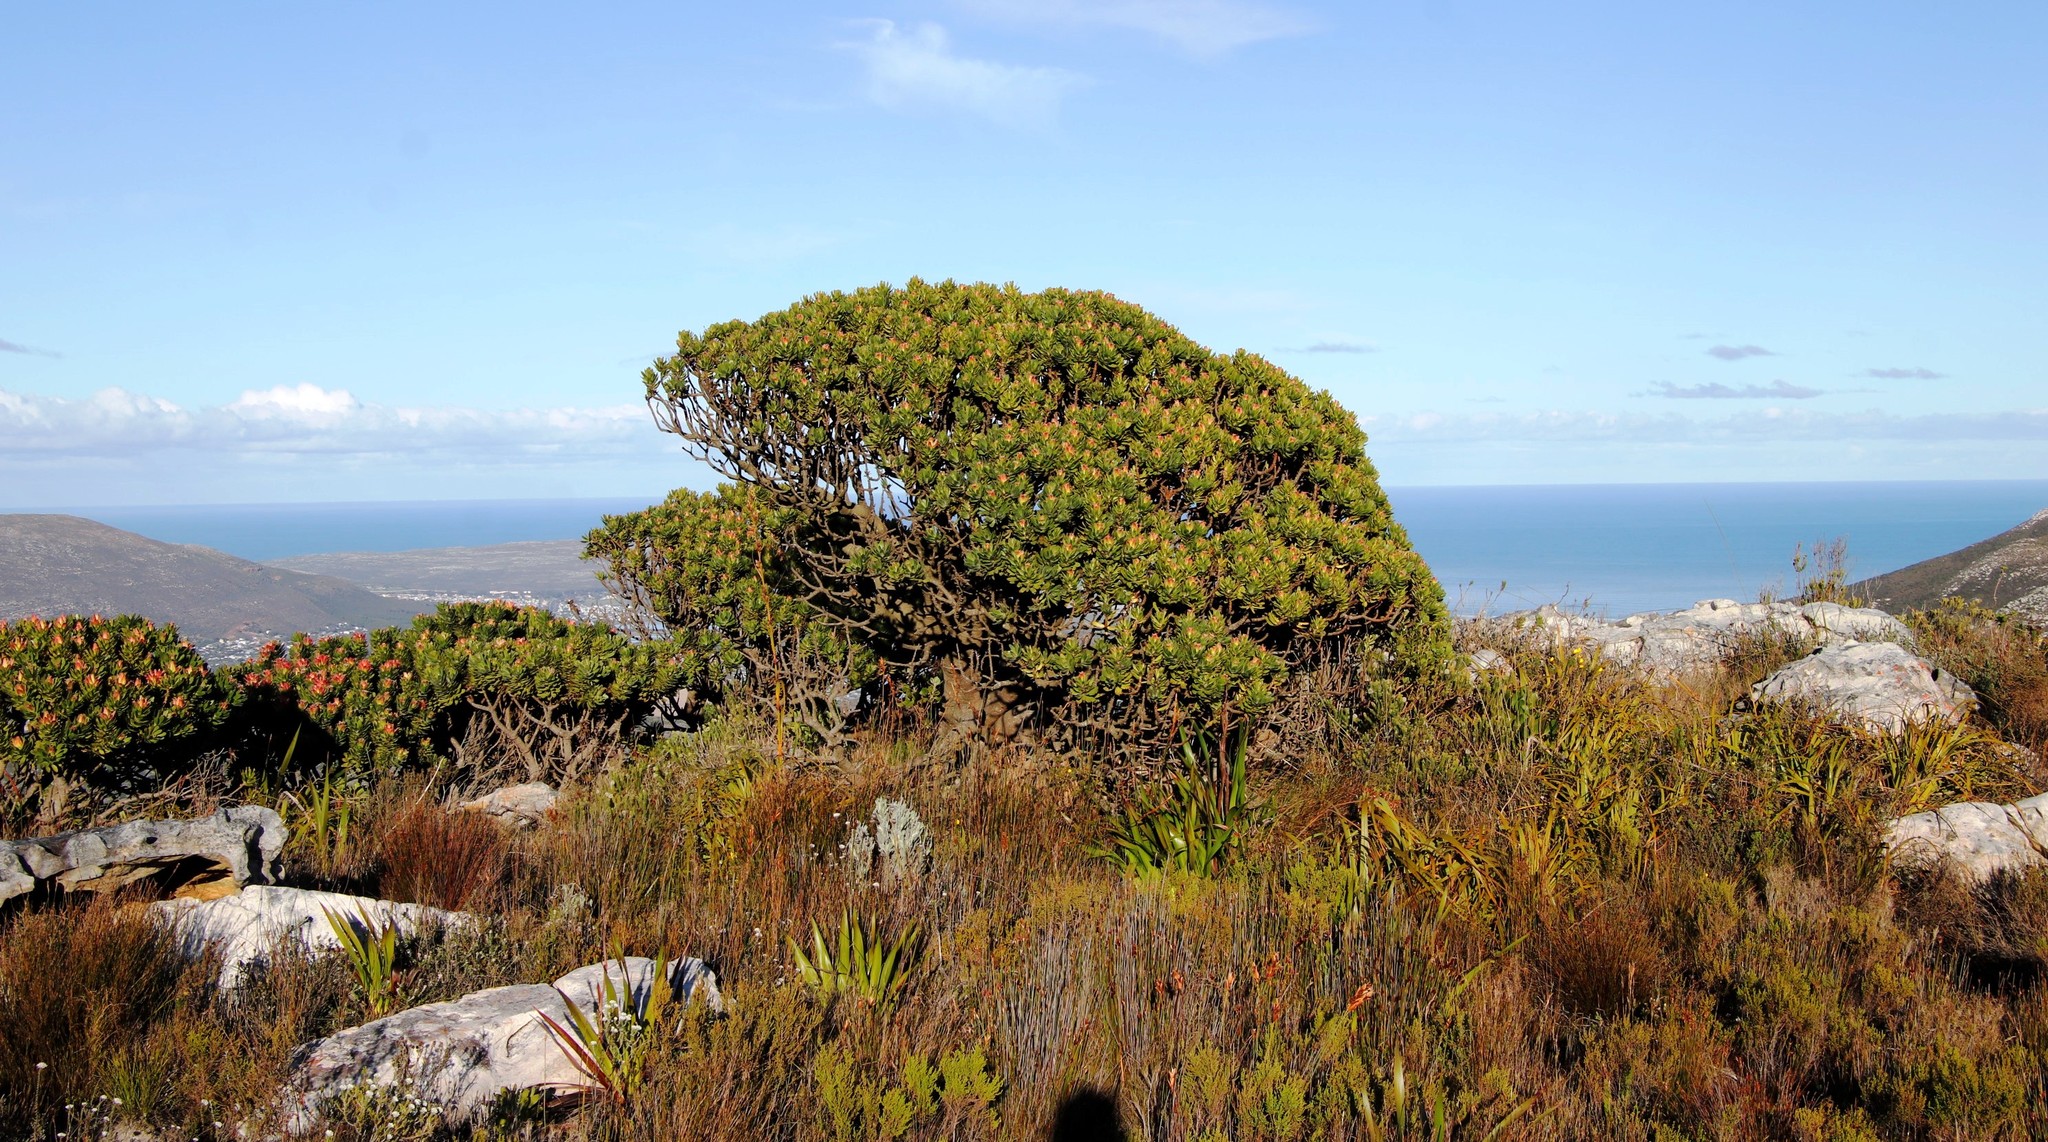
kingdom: Plantae
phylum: Tracheophyta
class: Magnoliopsida
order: Proteales
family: Proteaceae
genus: Mimetes
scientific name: Mimetes fimbriifolius
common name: Fringed bottlebrush
